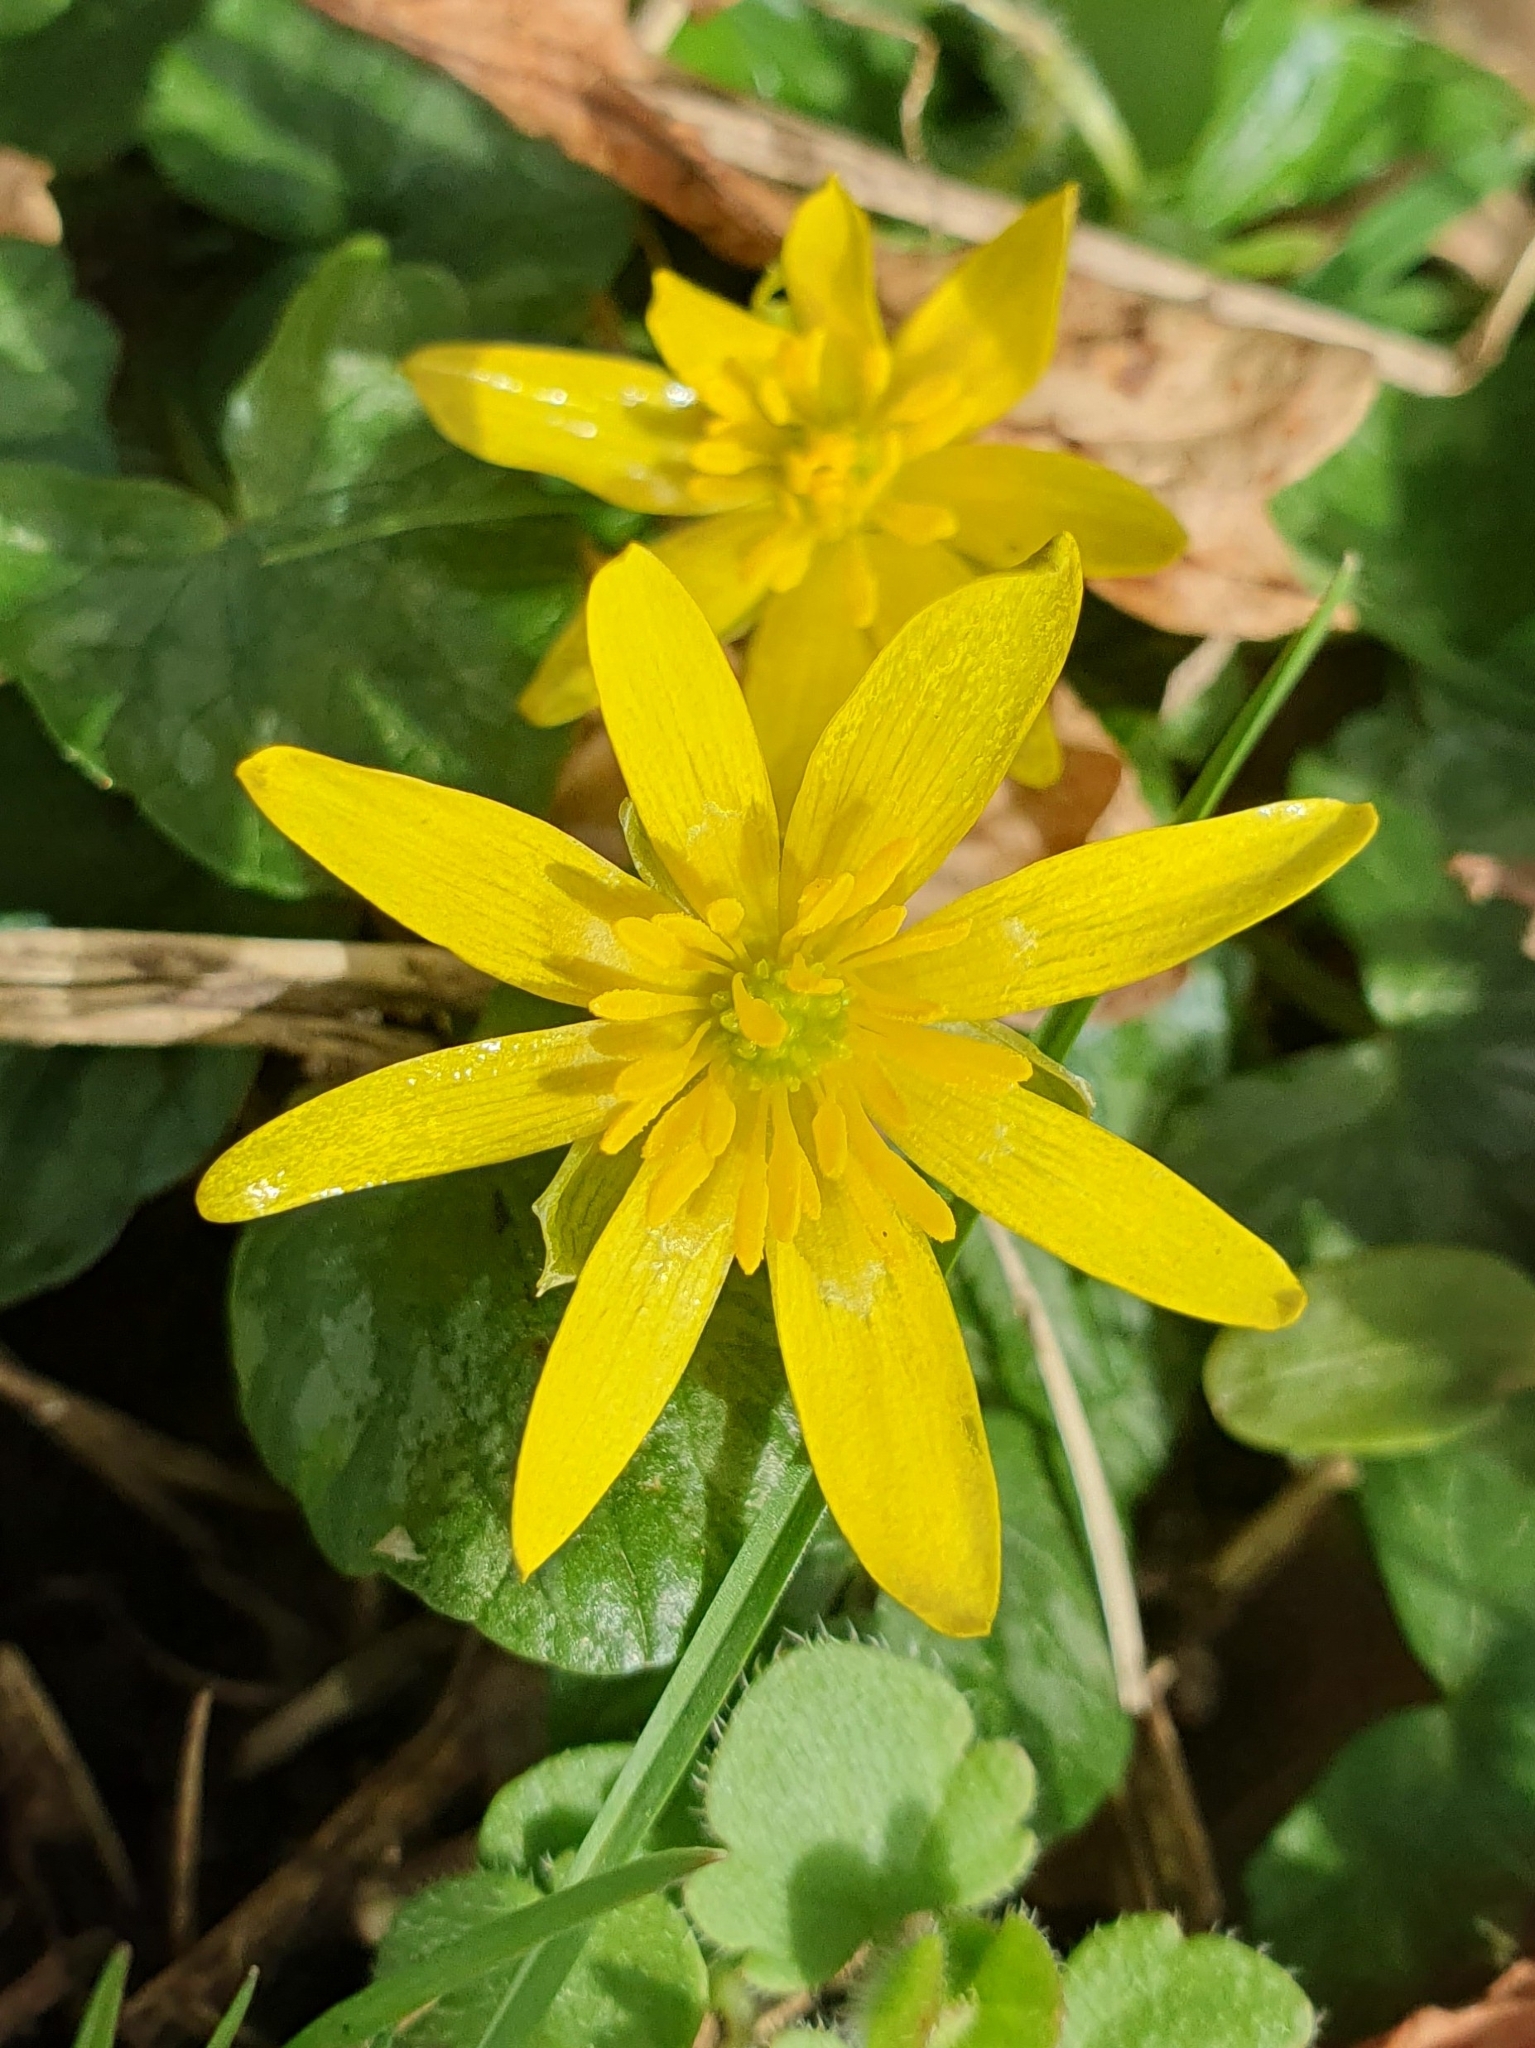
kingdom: Plantae
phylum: Tracheophyta
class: Magnoliopsida
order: Ranunculales
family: Ranunculaceae
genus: Ficaria
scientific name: Ficaria verna
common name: Lesser celandine
